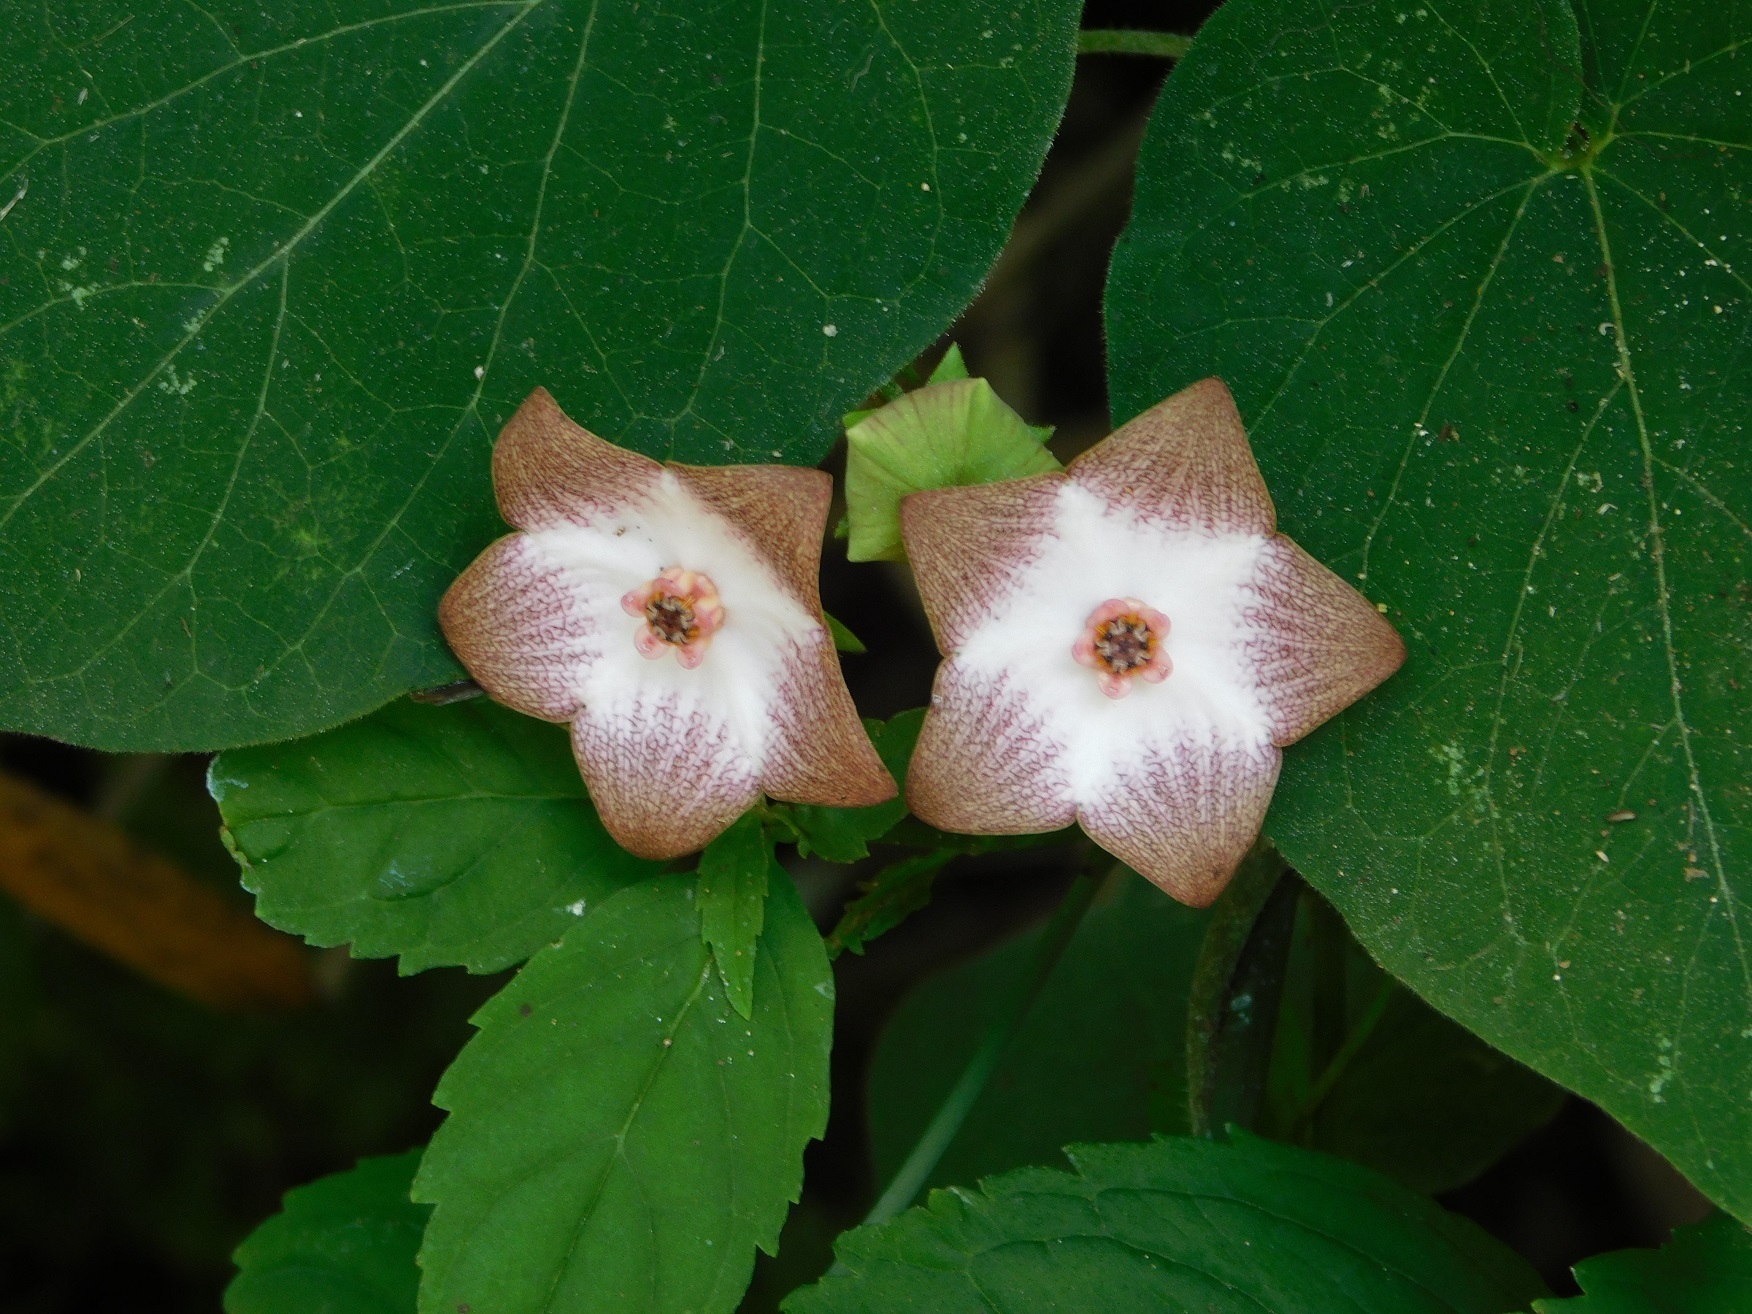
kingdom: Plantae
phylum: Tracheophyta
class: Magnoliopsida
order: Gentianales
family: Apocynaceae
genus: Polystemma
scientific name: Polystemma guatemalense
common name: Arborescente rattan
